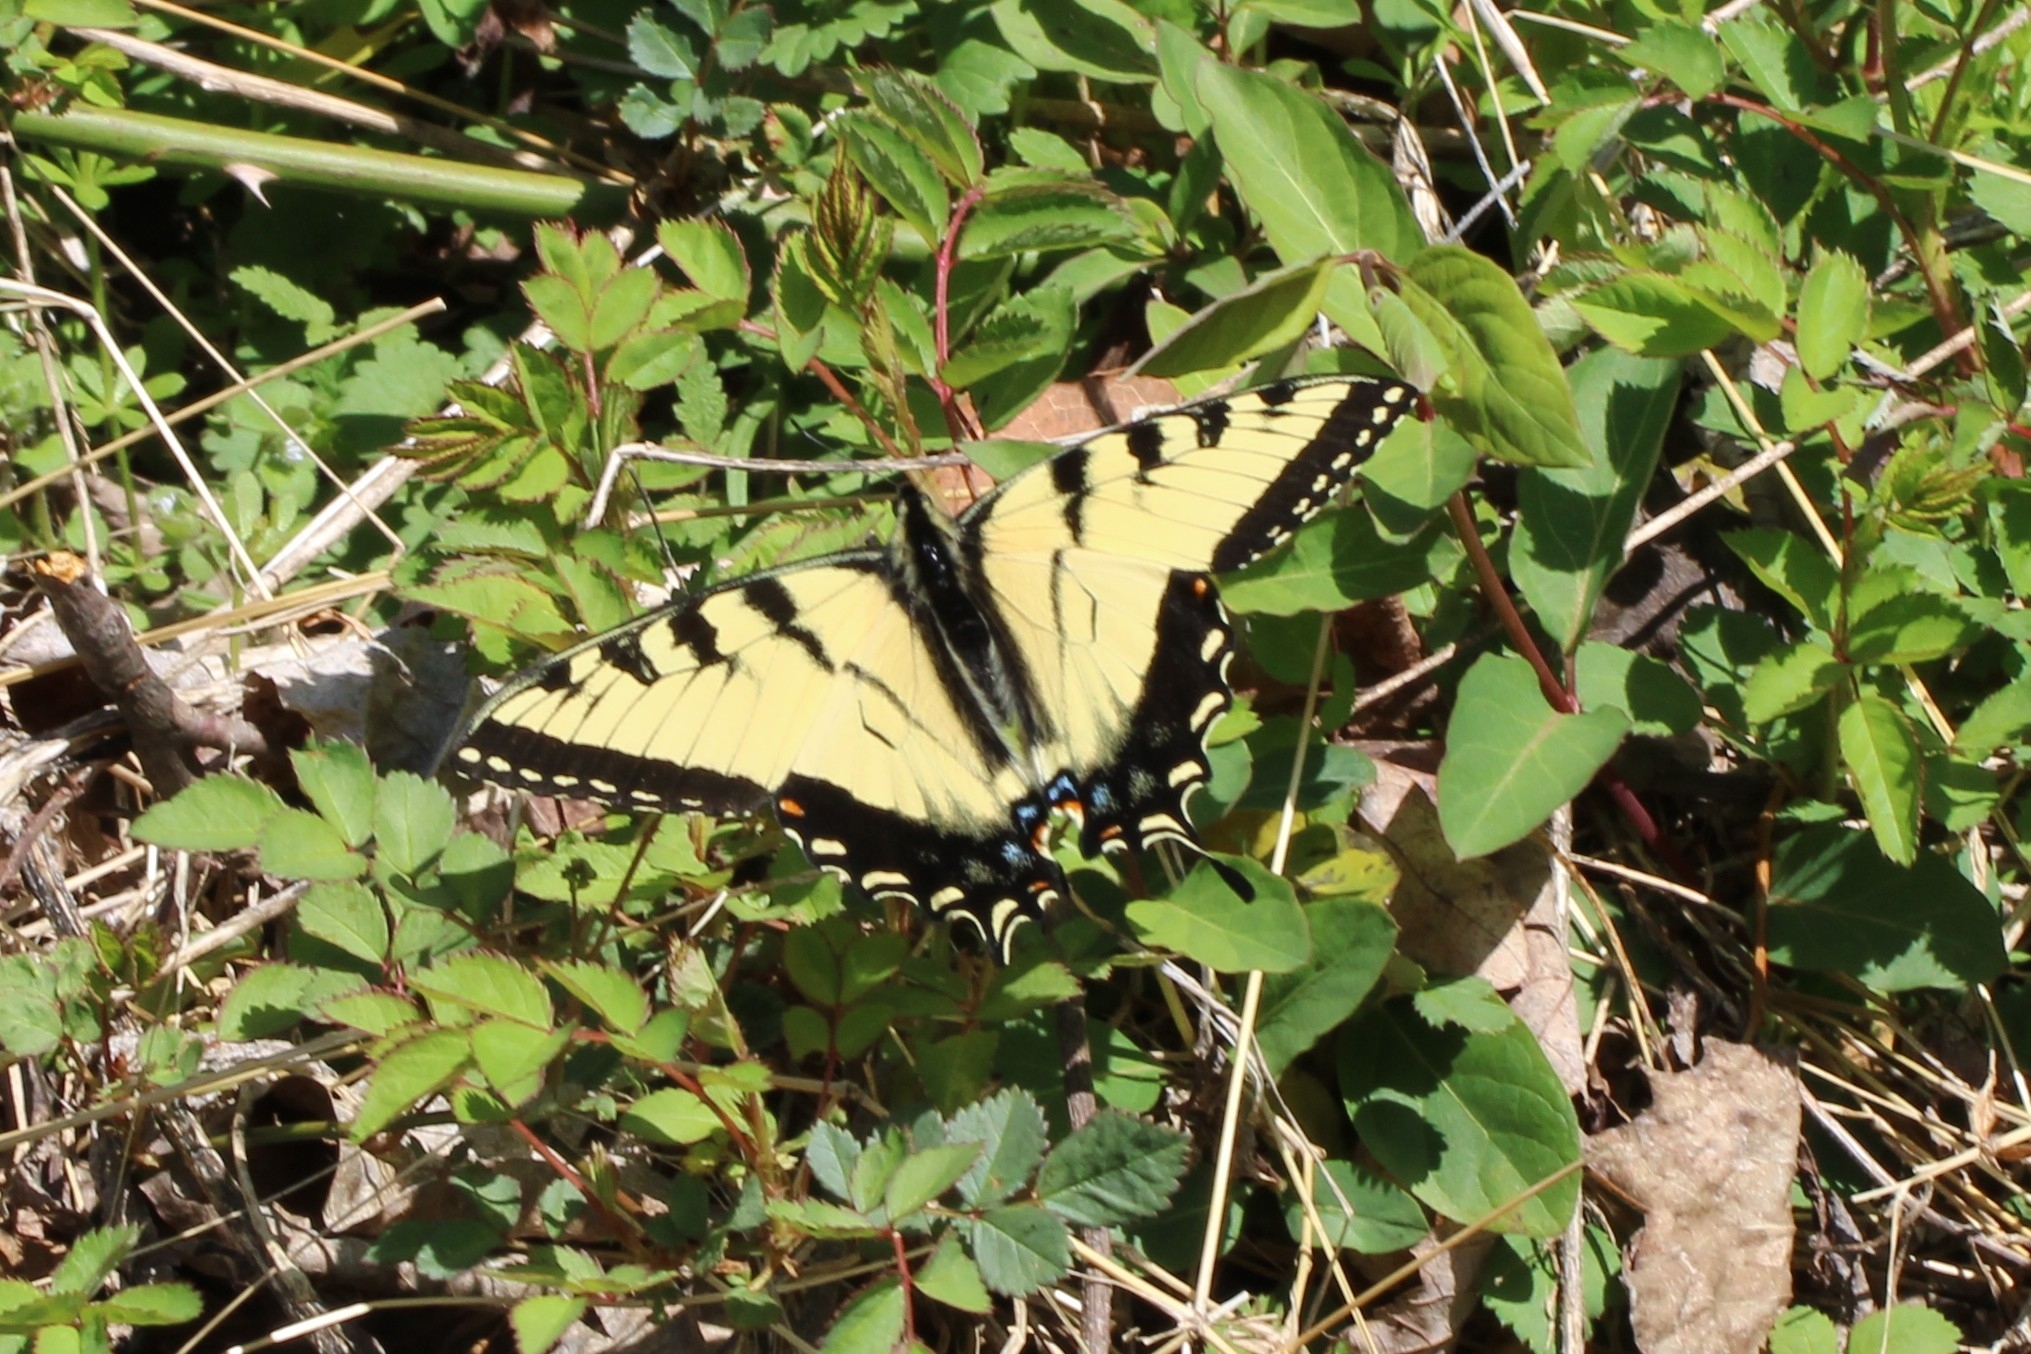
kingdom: Animalia
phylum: Arthropoda
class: Insecta
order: Lepidoptera
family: Papilionidae
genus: Papilio
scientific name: Papilio glaucus
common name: Tiger swallowtail
